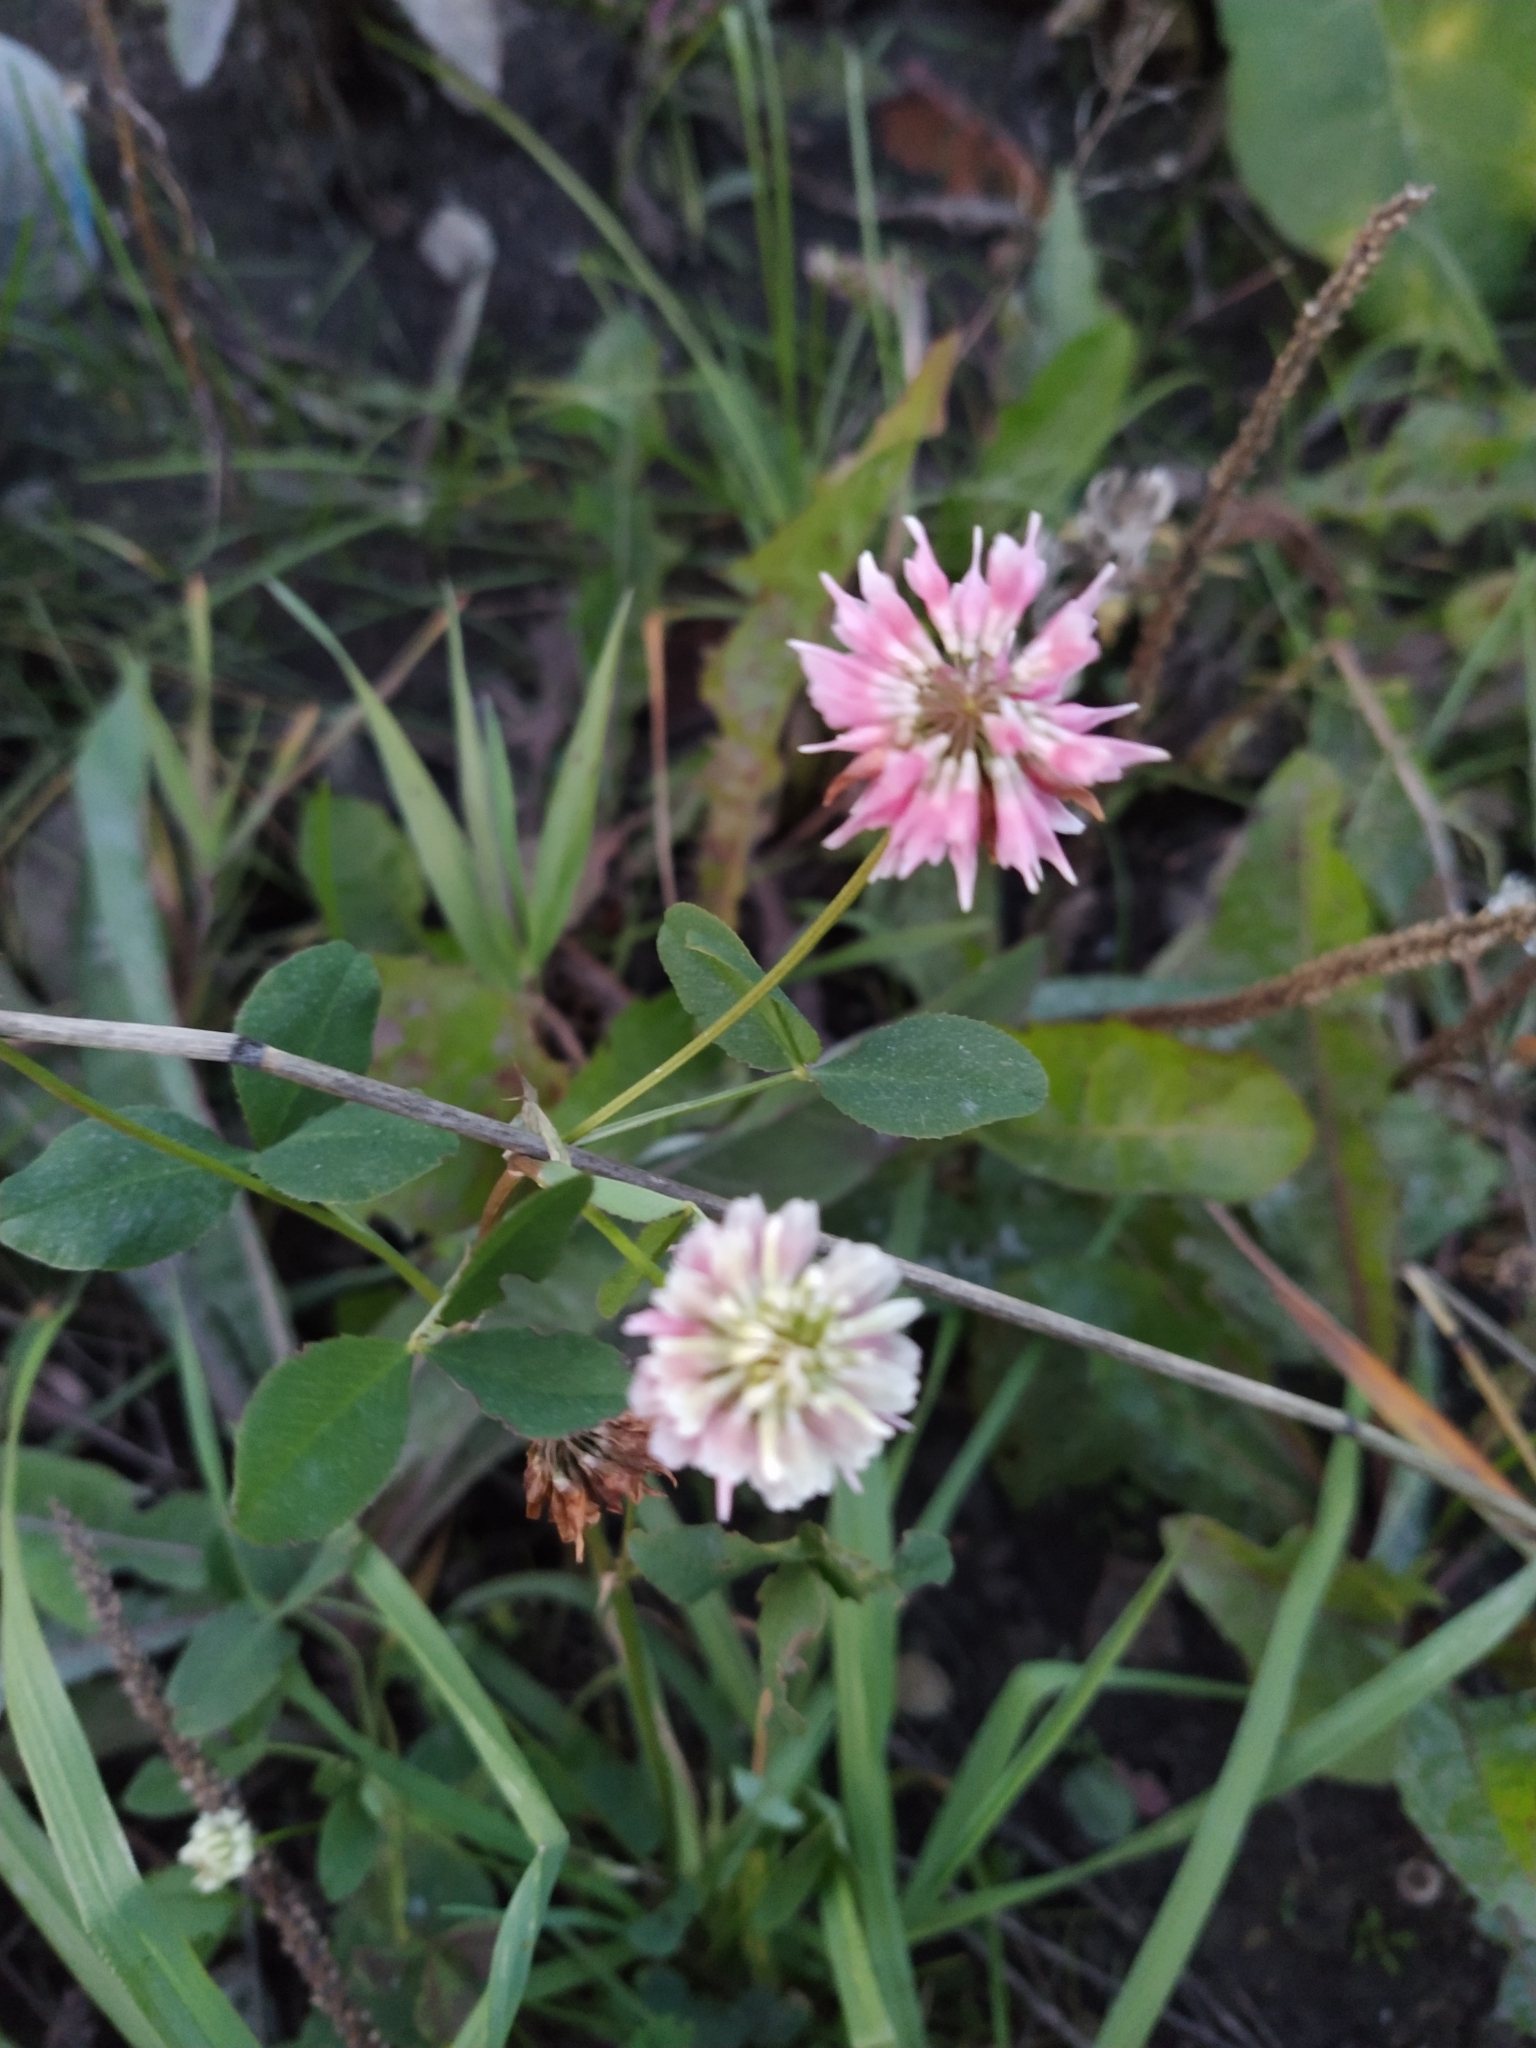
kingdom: Plantae
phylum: Tracheophyta
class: Magnoliopsida
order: Fabales
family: Fabaceae
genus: Trifolium
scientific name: Trifolium hybridum
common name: Alsike clover
